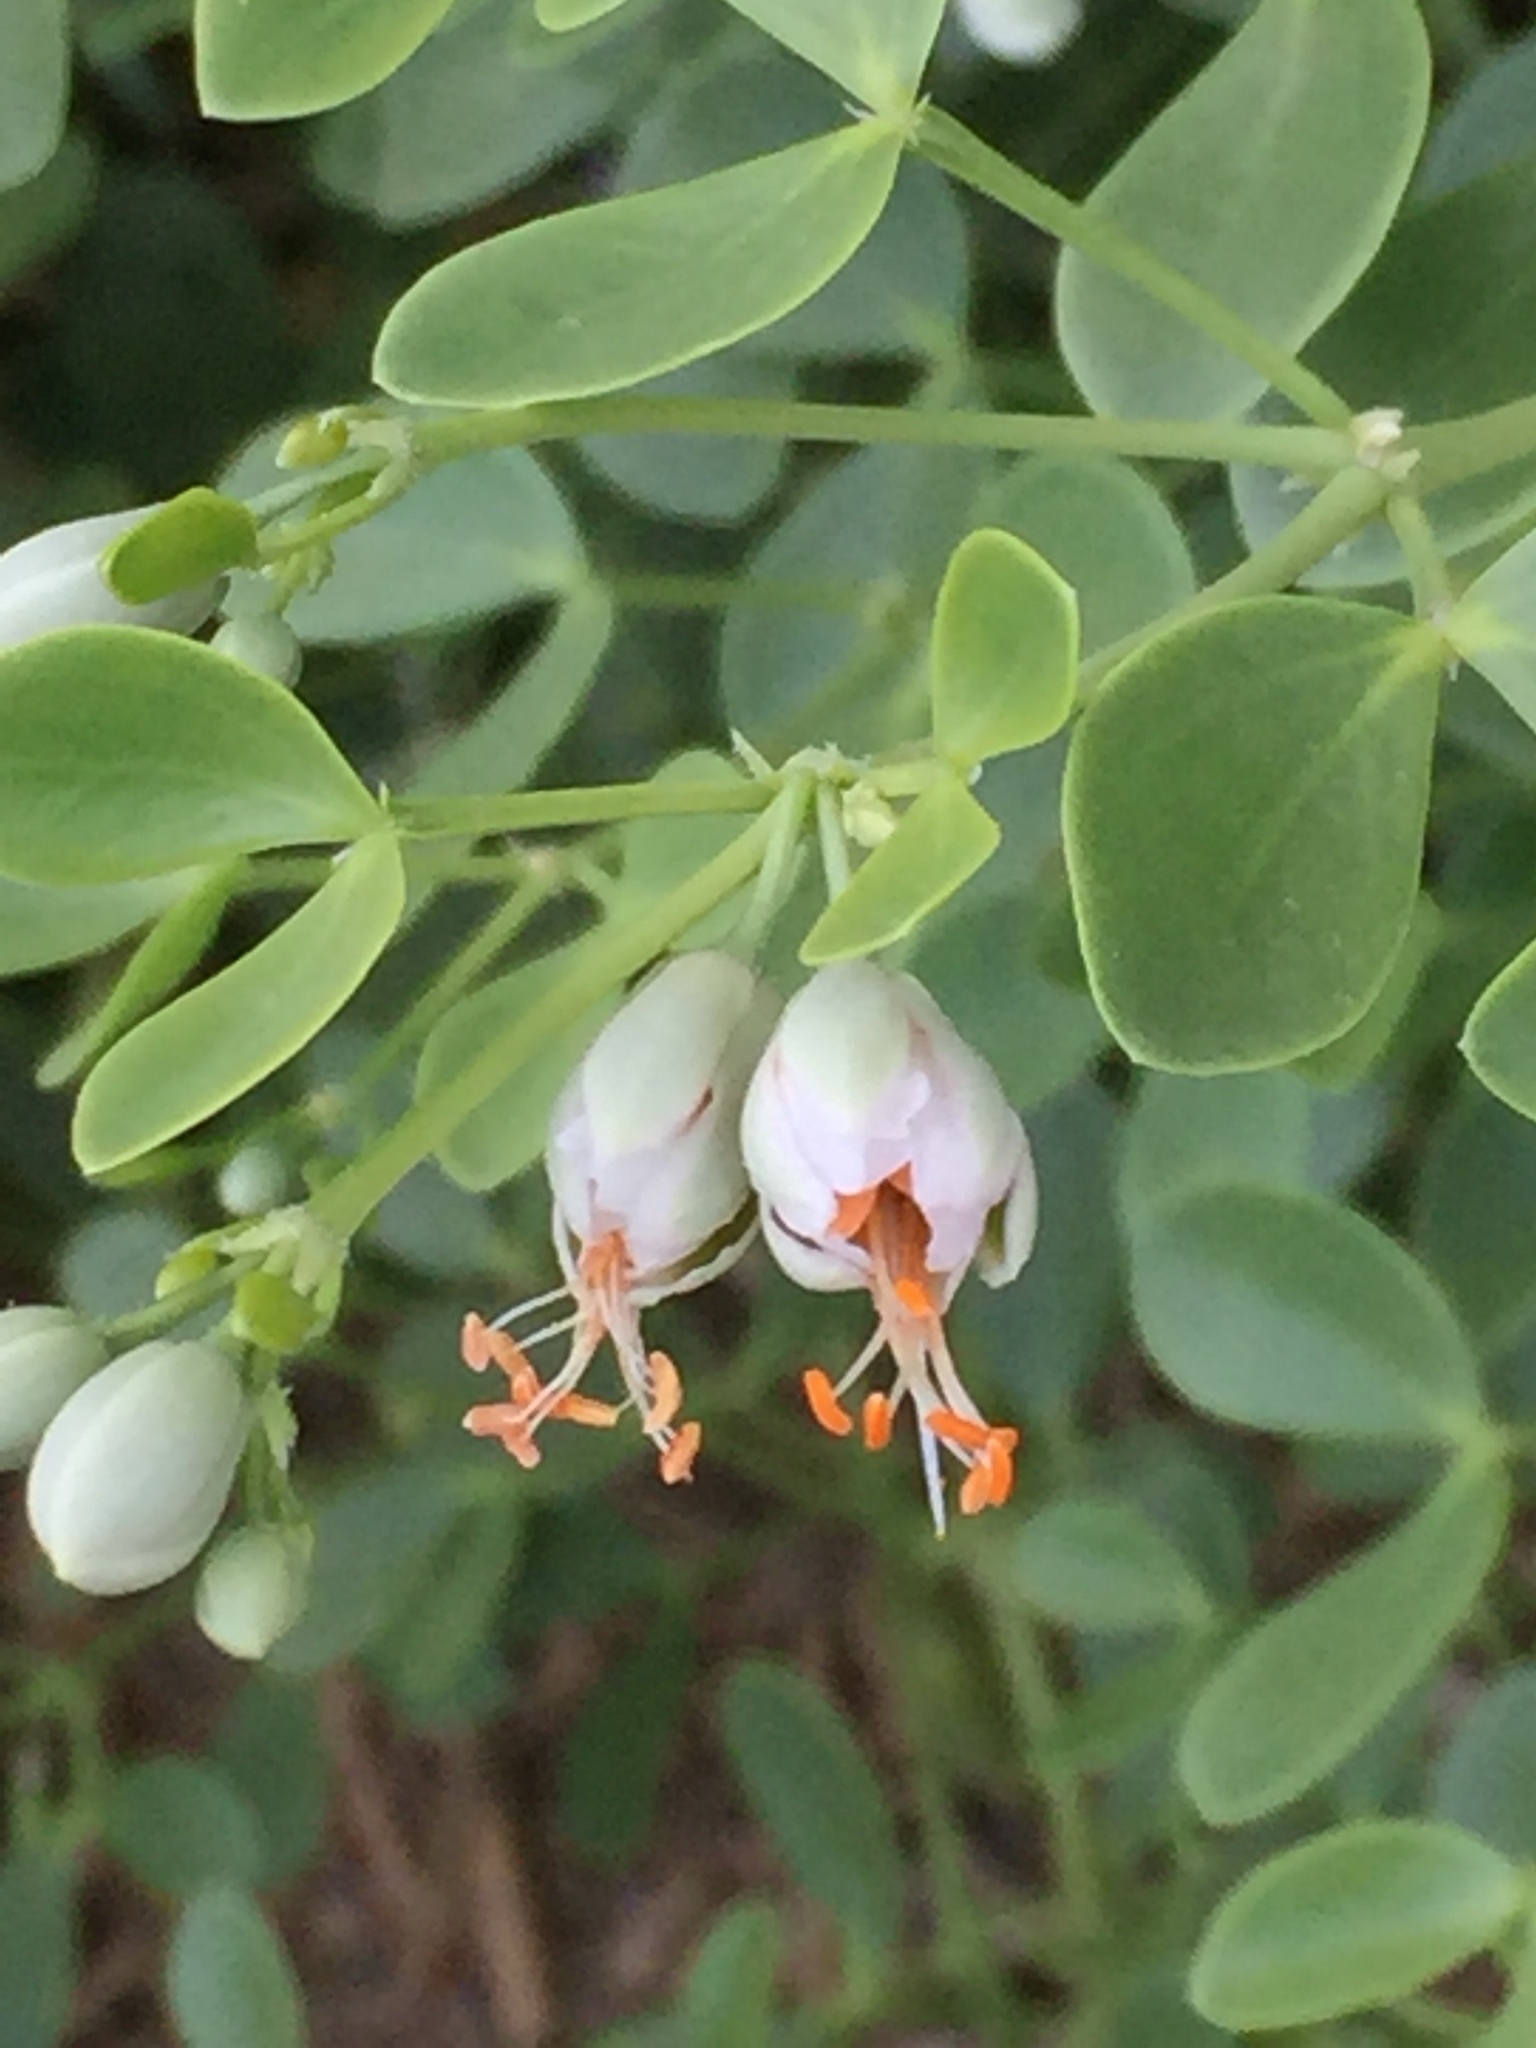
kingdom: Plantae
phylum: Tracheophyta
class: Magnoliopsida
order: Zygophyllales
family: Zygophyllaceae
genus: Zygophyllum
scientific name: Zygophyllum fabago
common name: Syrian beancaper
